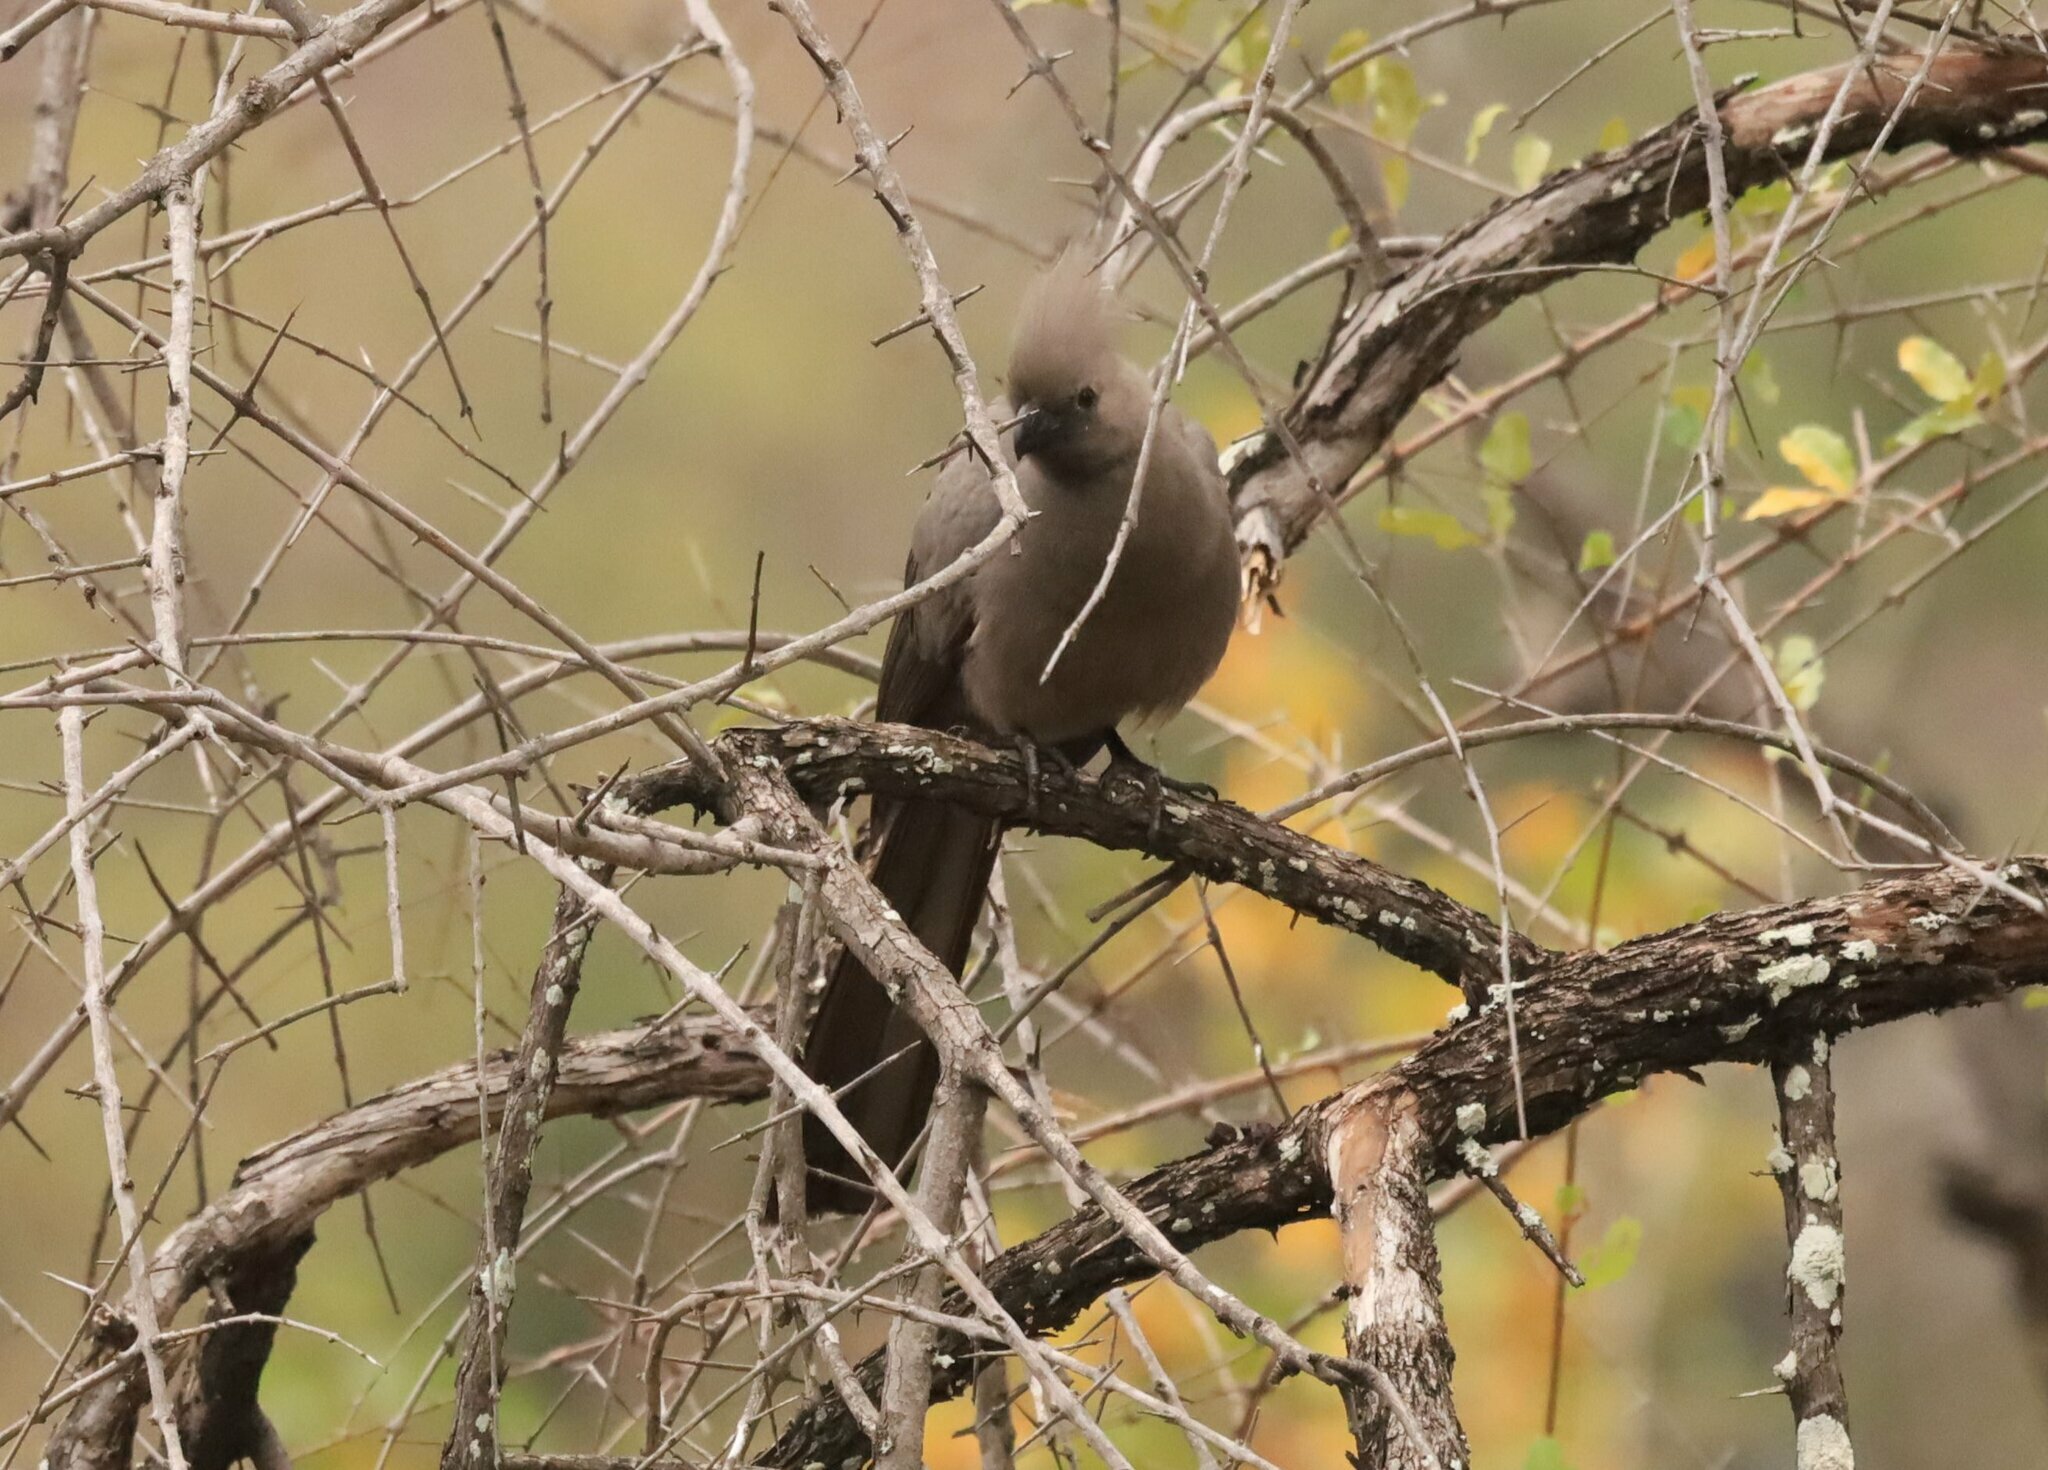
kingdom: Animalia
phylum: Chordata
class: Aves
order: Musophagiformes
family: Musophagidae
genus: Corythaixoides
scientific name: Corythaixoides concolor
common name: Grey go-away-bird
